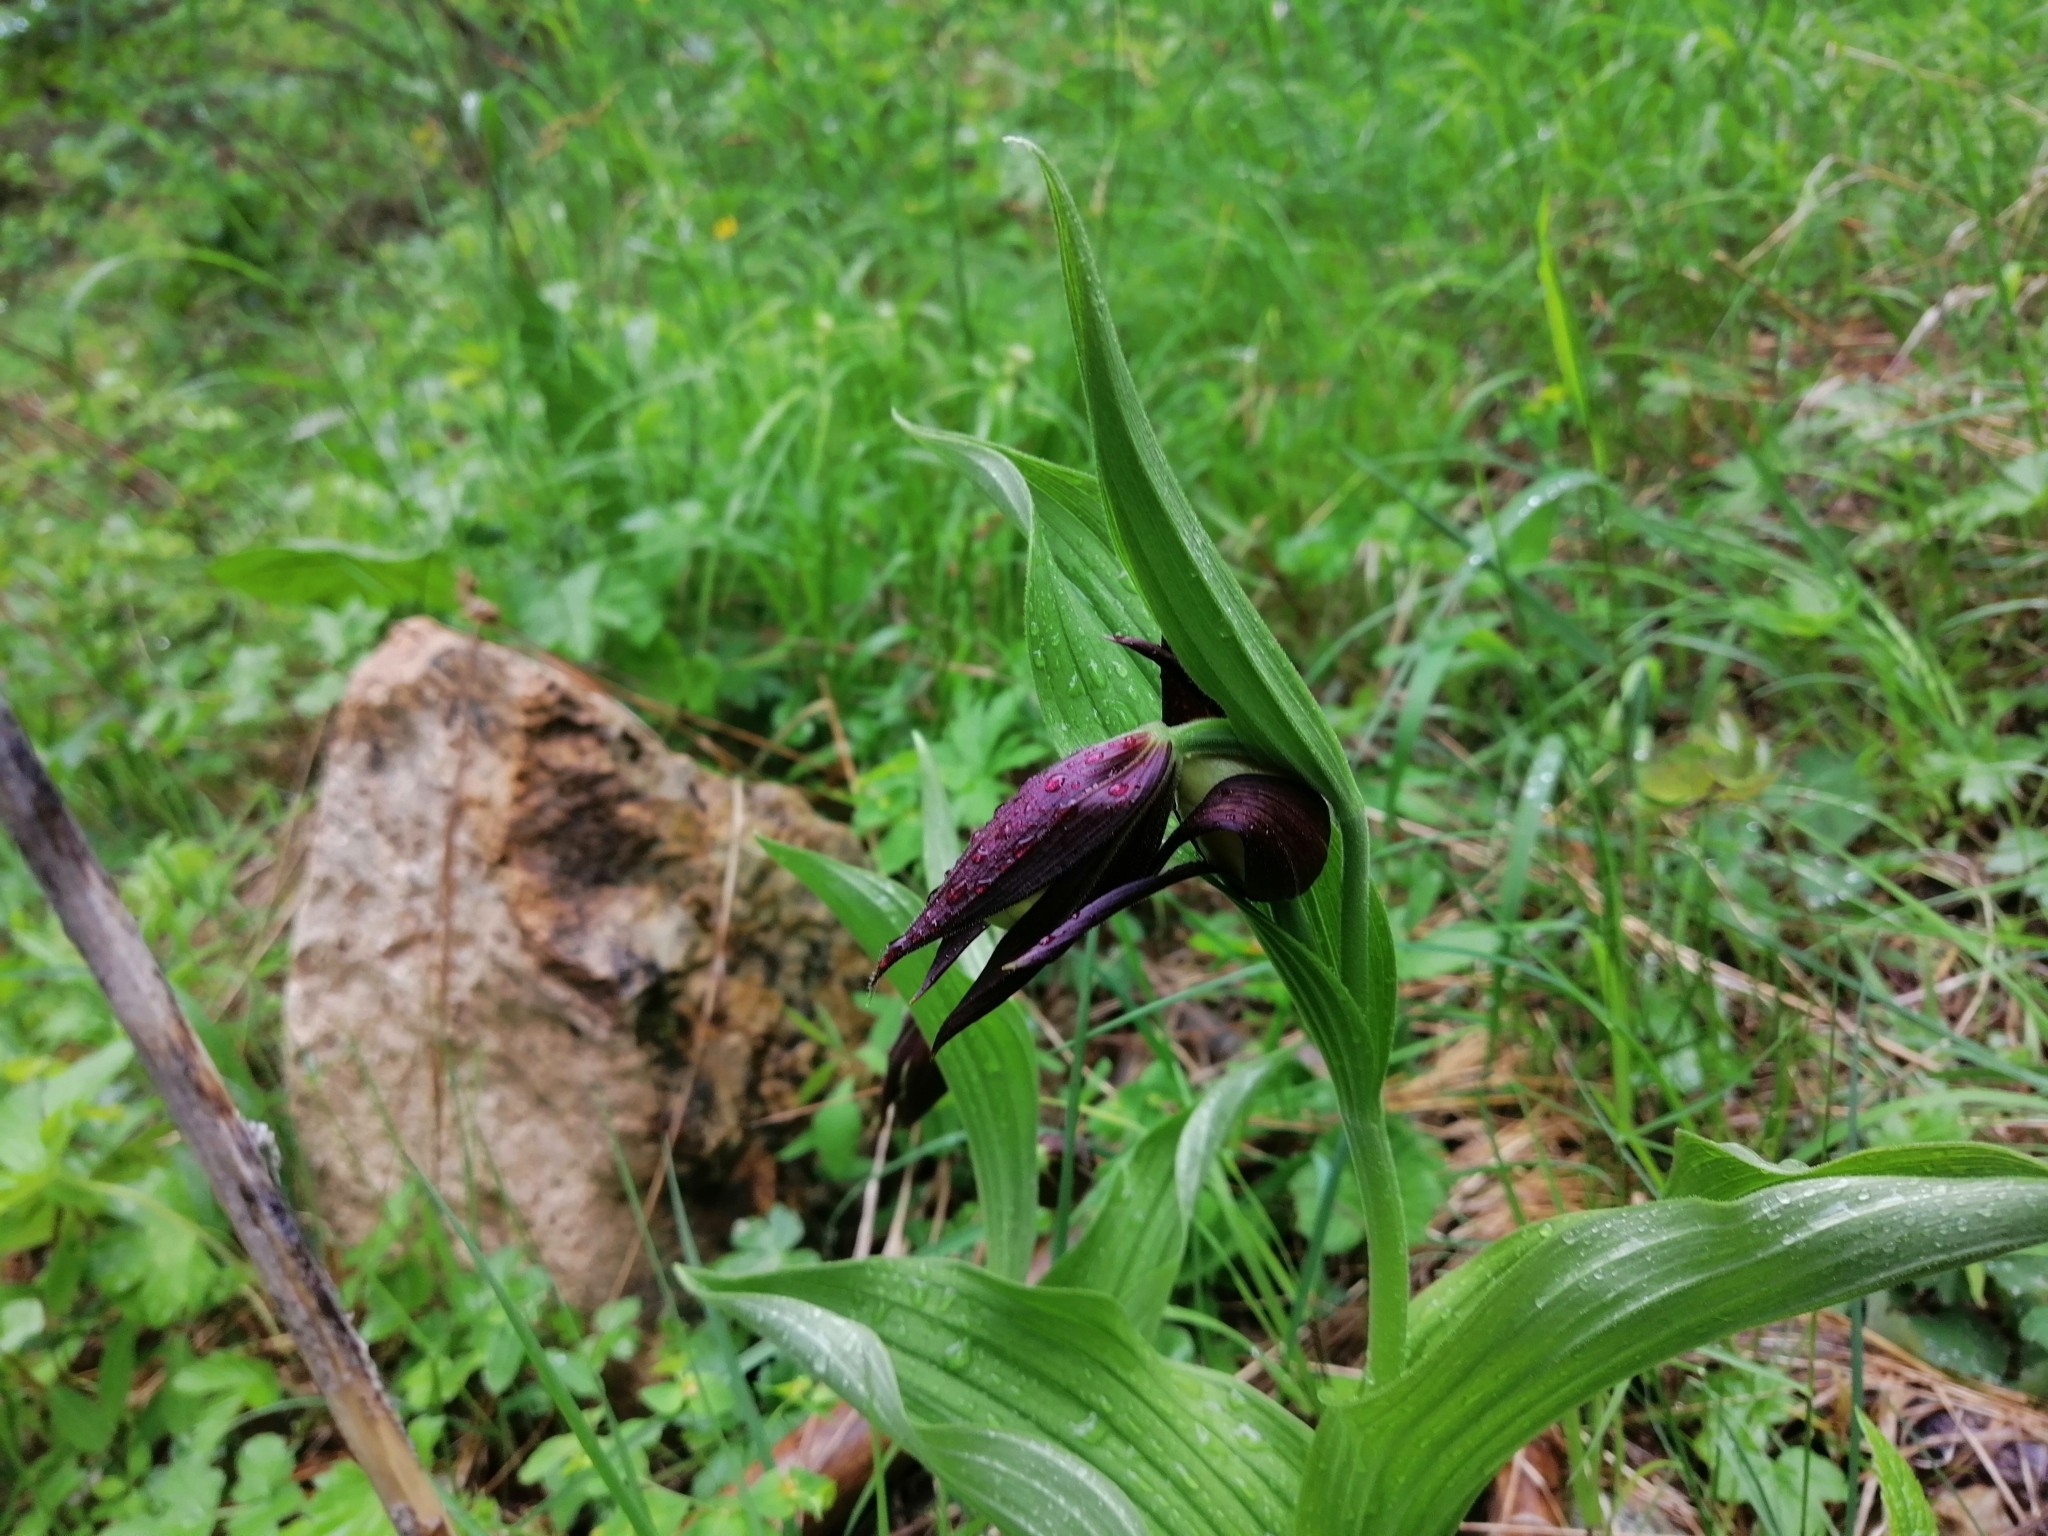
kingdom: Plantae
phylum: Tracheophyta
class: Liliopsida
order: Asparagales
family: Orchidaceae
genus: Cypripedium
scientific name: Cypripedium calceolus
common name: Lady's-slipper
